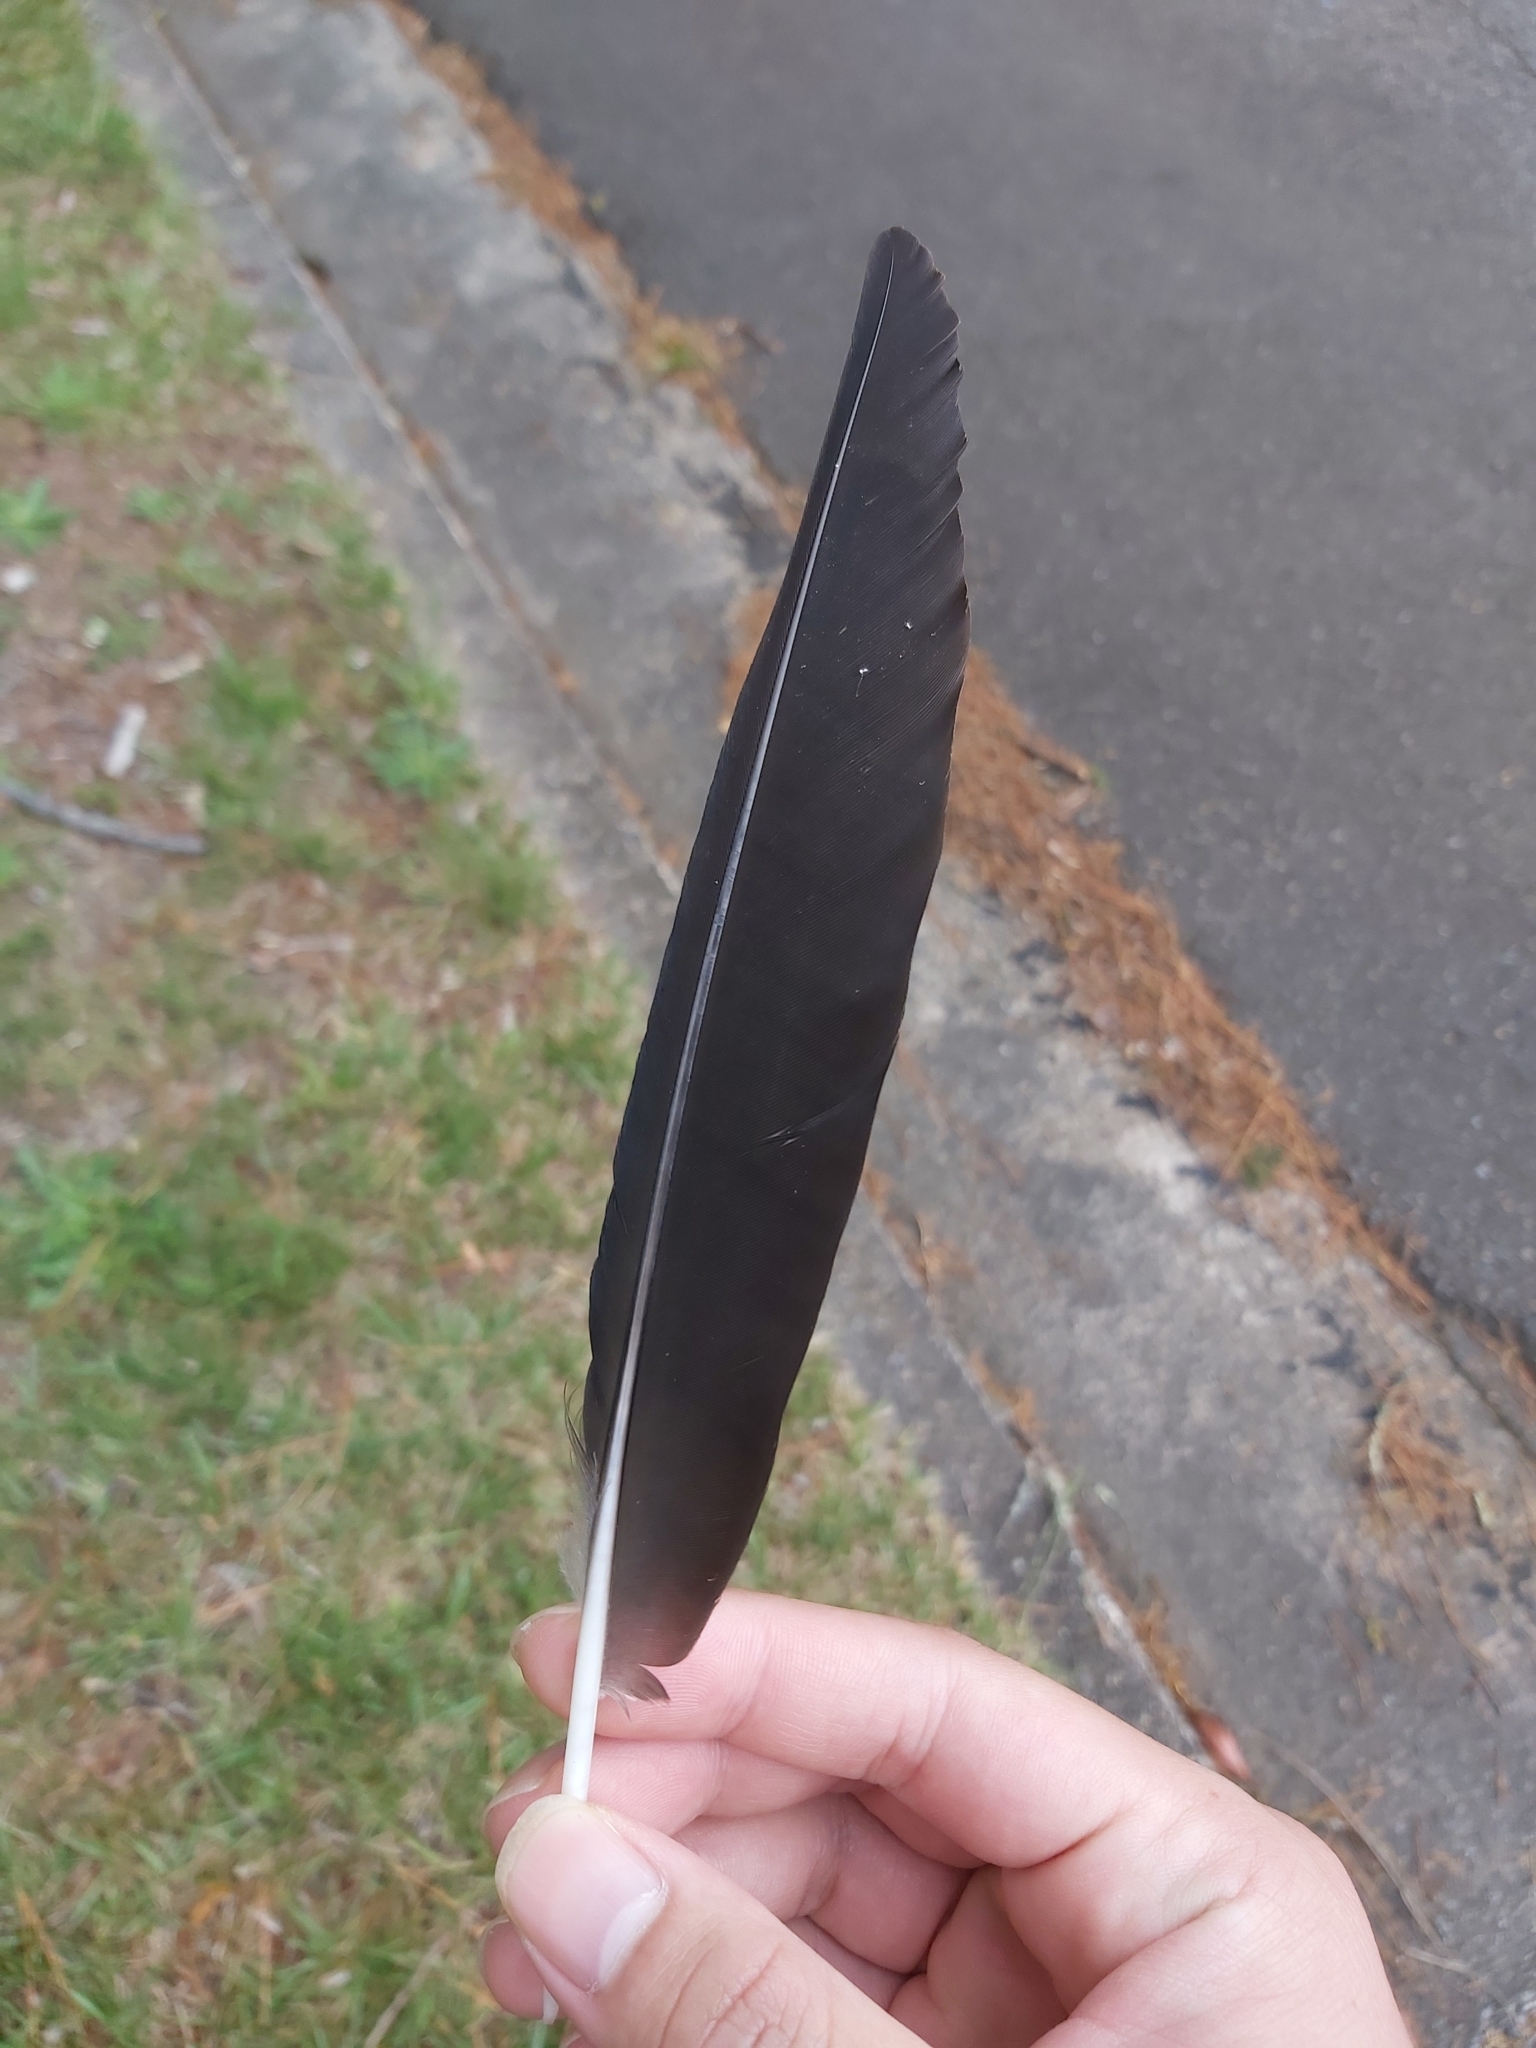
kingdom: Animalia
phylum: Chordata
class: Aves
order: Passeriformes
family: Cracticidae
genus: Gymnorhina
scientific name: Gymnorhina tibicen
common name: Australian magpie
